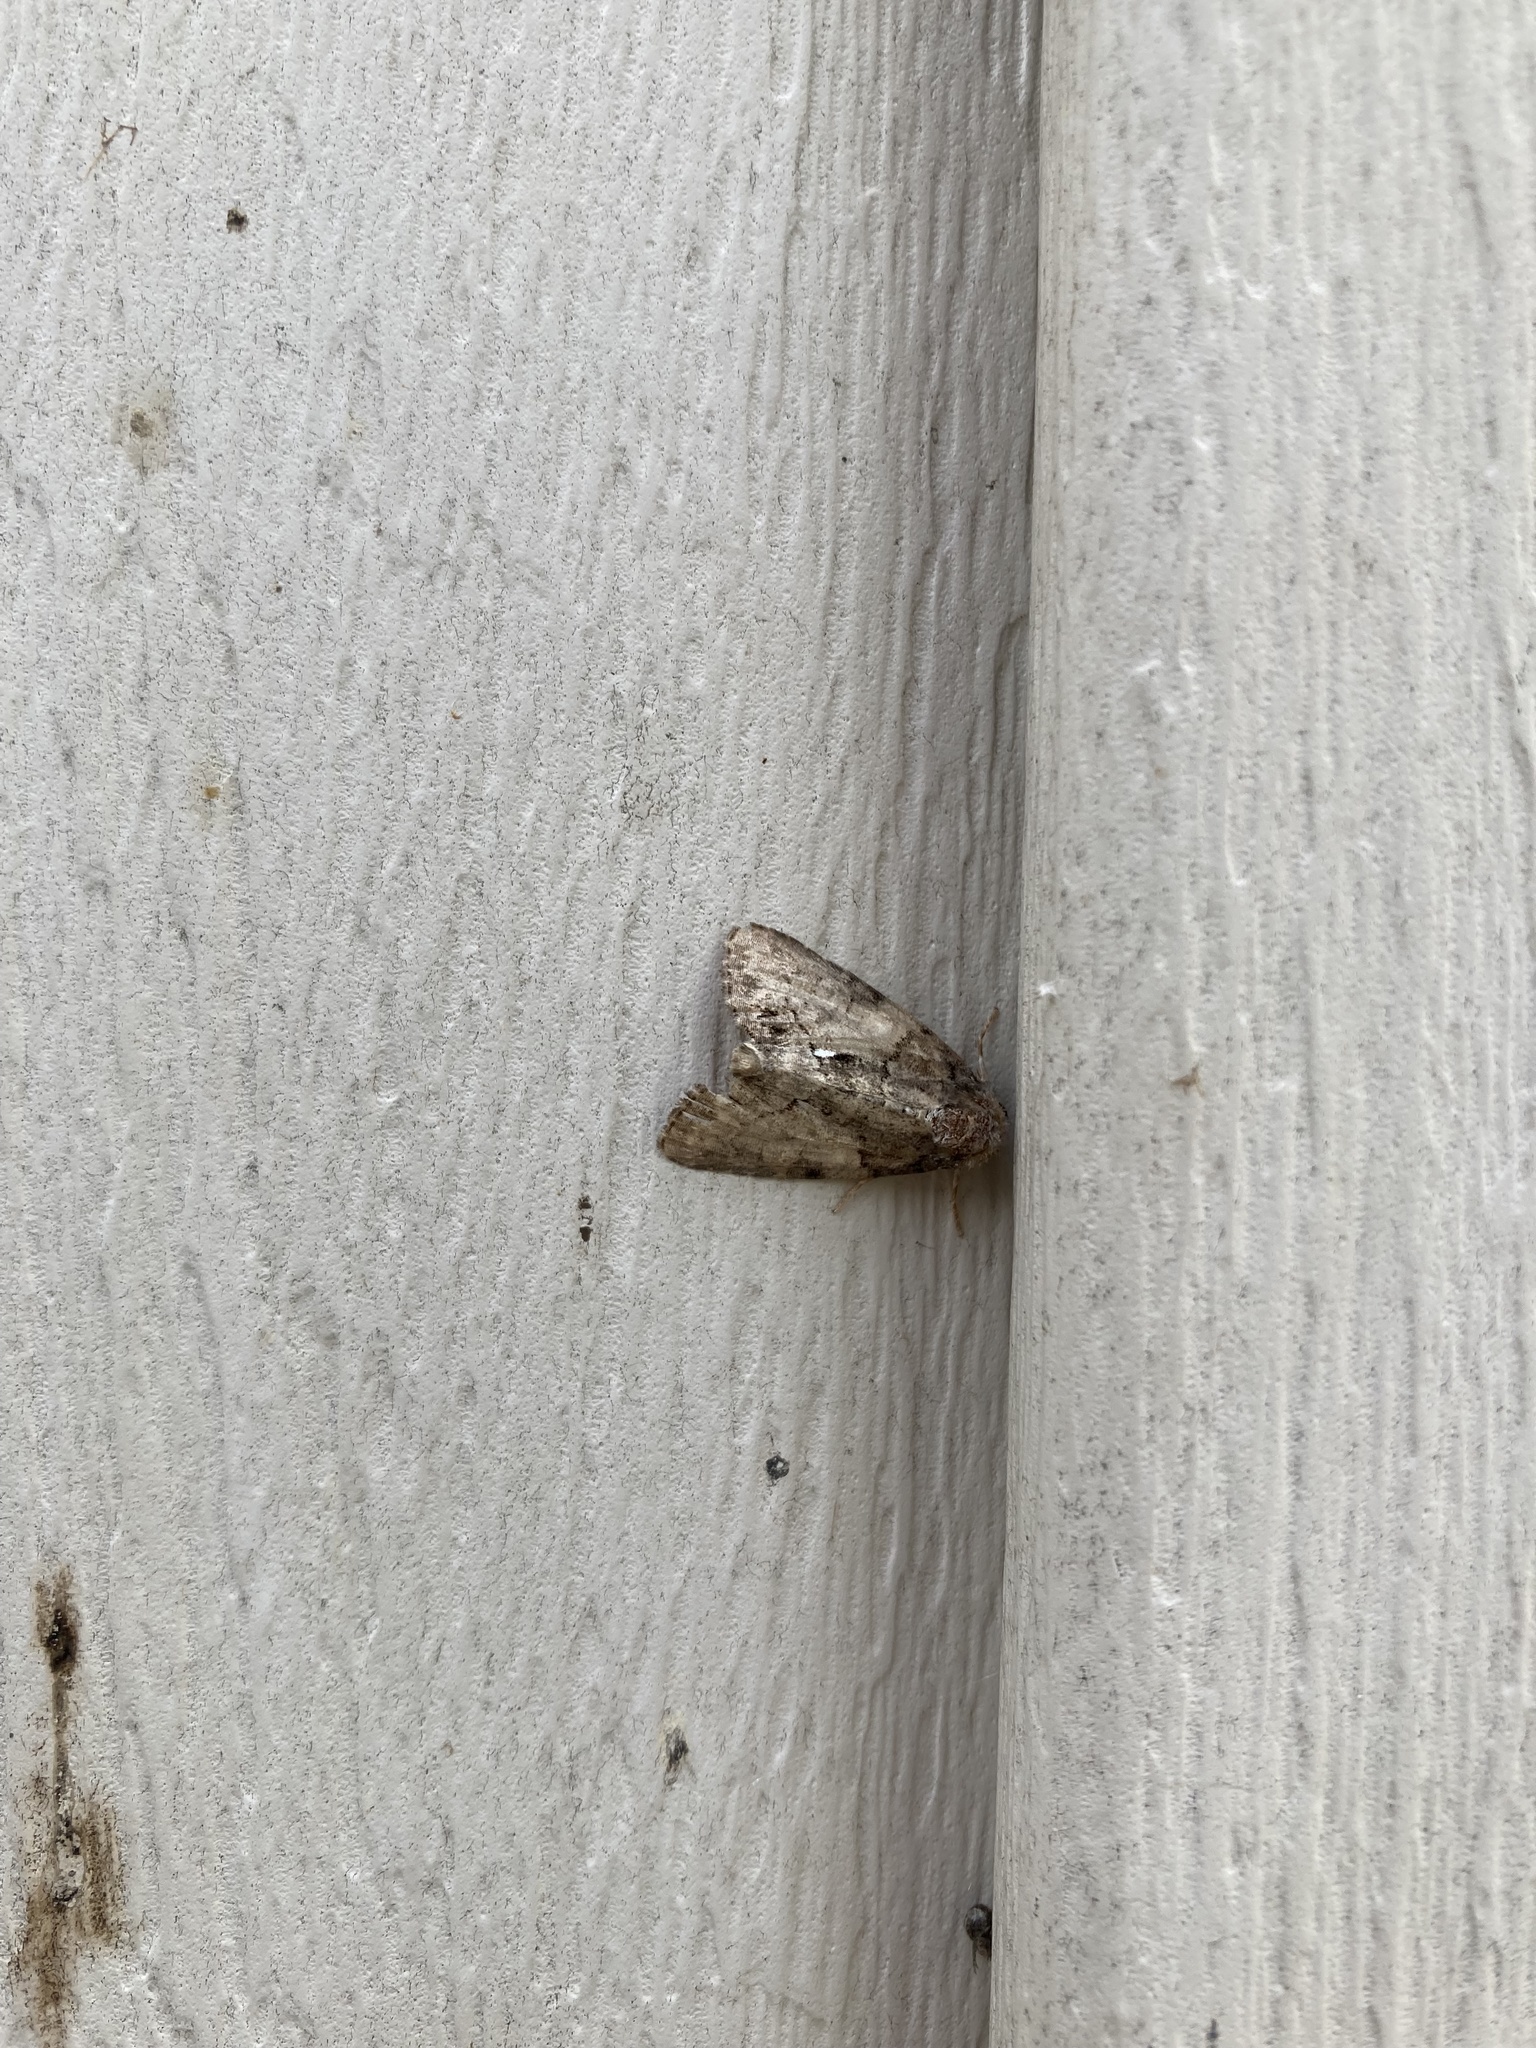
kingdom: Animalia
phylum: Arthropoda
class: Insecta
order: Lepidoptera
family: Noctuidae
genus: Chytonix
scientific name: Chytonix palliatricula
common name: Cloaked marvel
